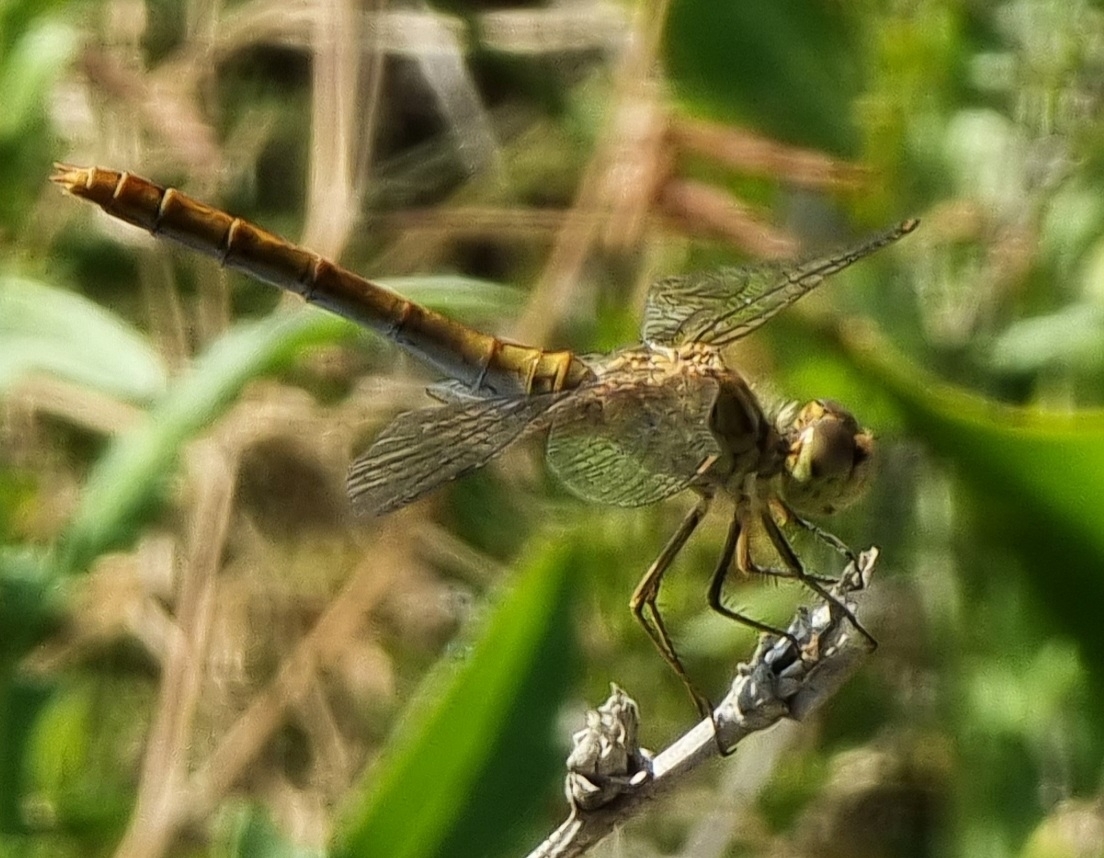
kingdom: Animalia
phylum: Arthropoda
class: Insecta
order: Odonata
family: Libellulidae
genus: Sympetrum
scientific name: Sympetrum meridionale
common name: Southern darter
